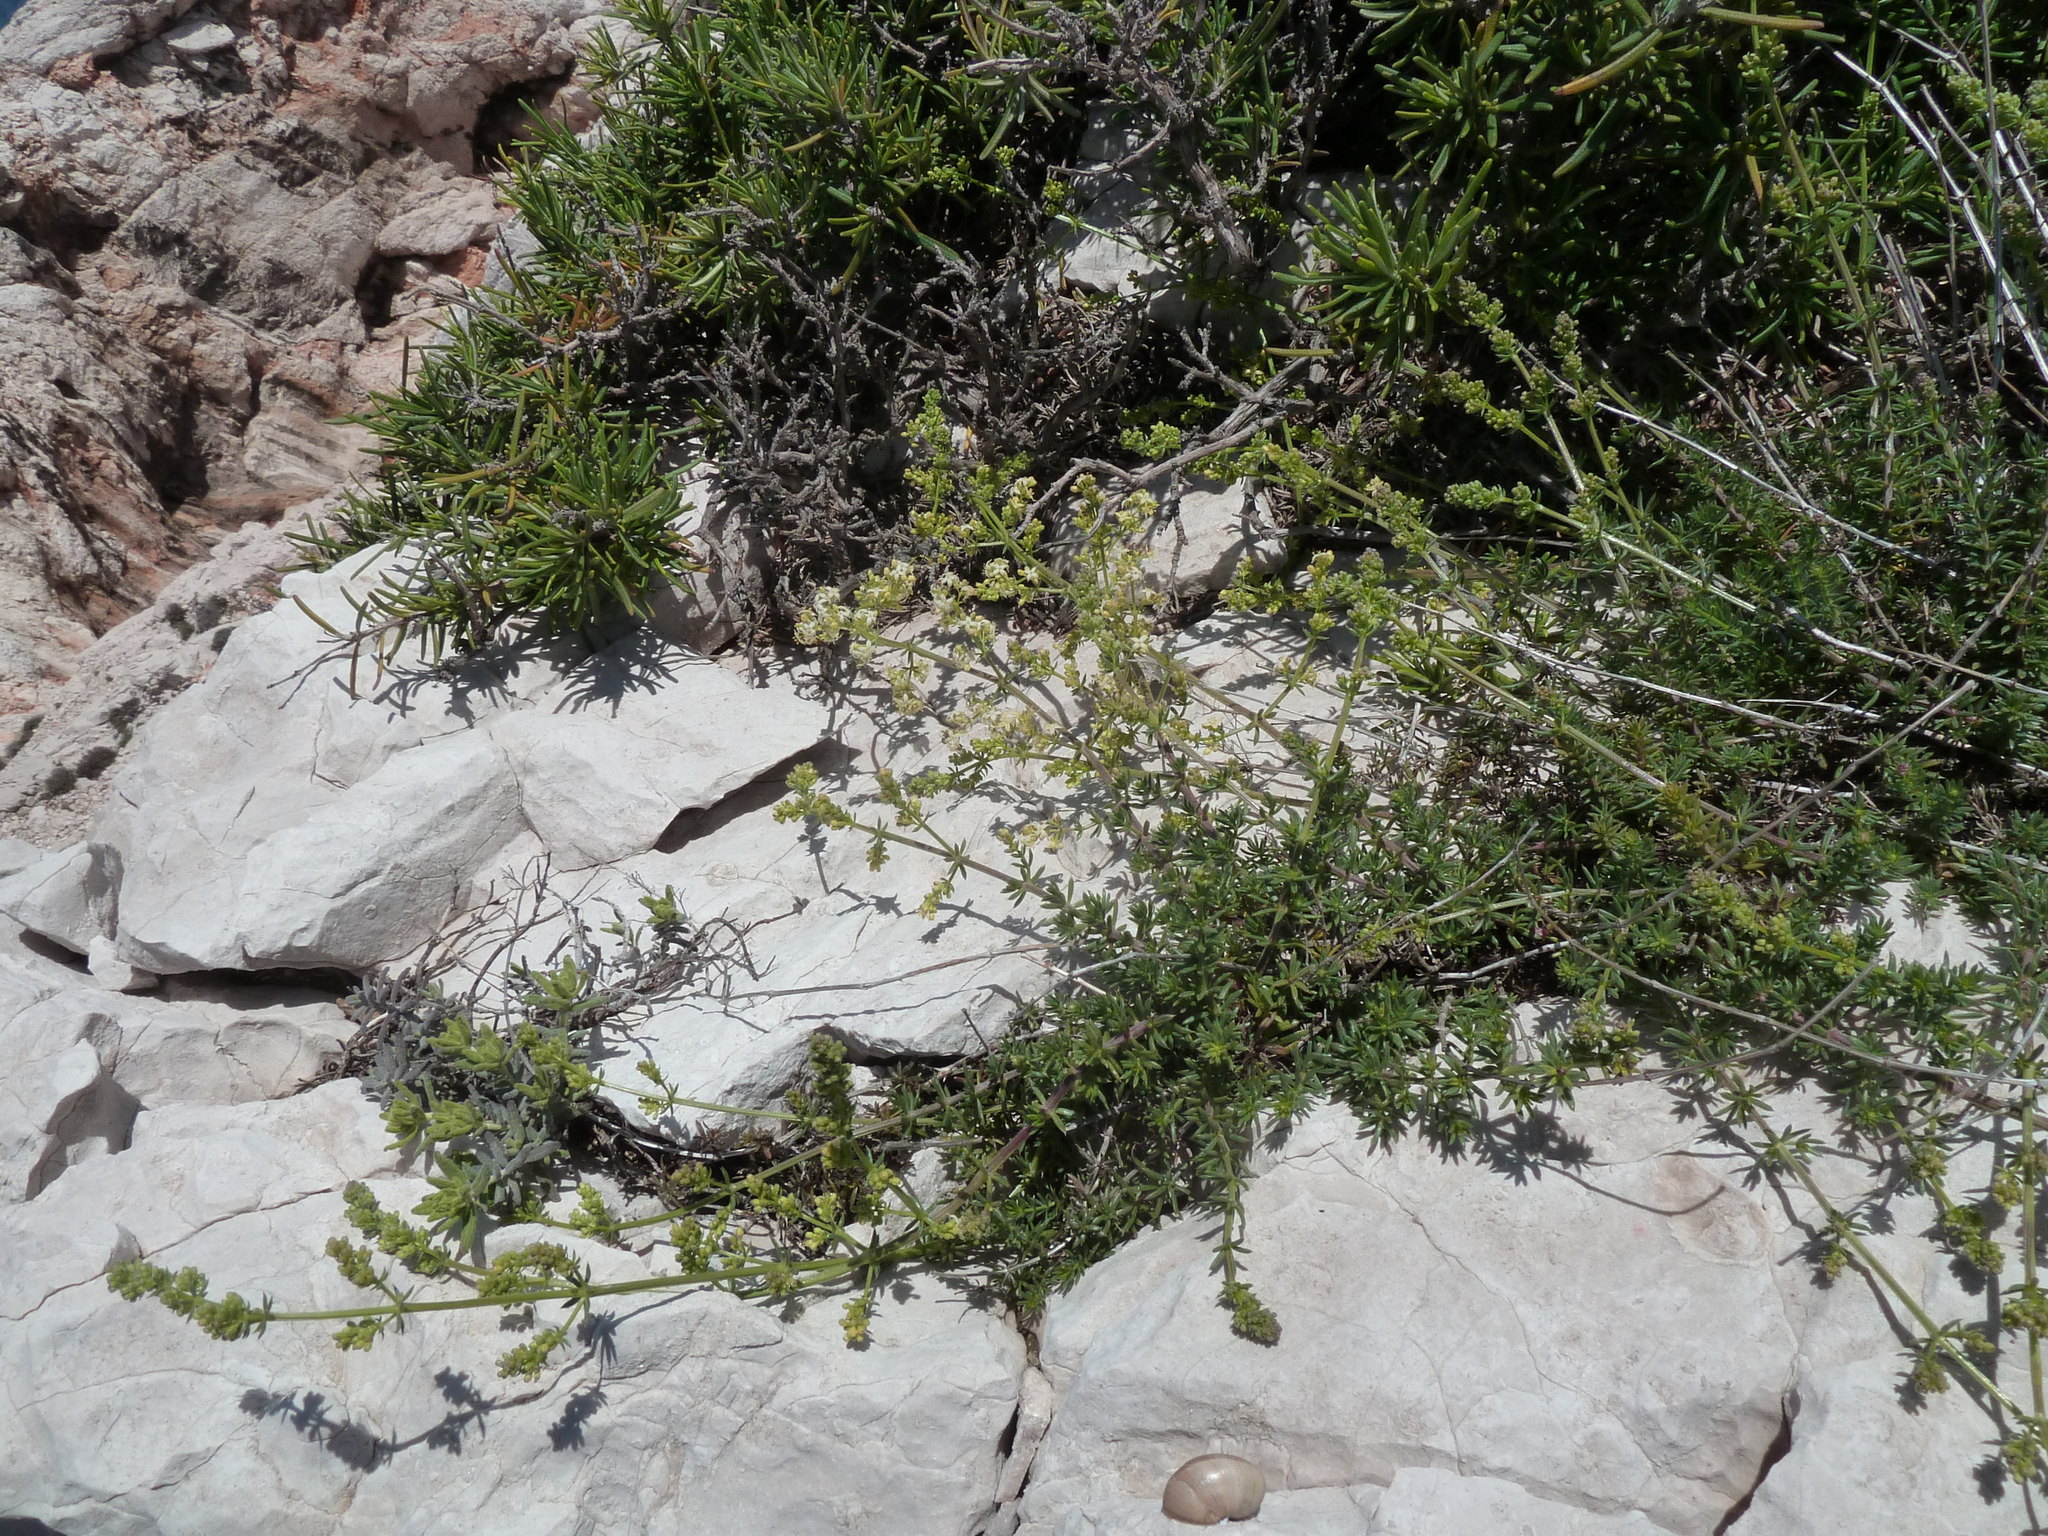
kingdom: Plantae
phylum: Tracheophyta
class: Magnoliopsida
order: Gentianales
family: Rubiaceae
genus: Galium
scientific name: Galium lucidum
